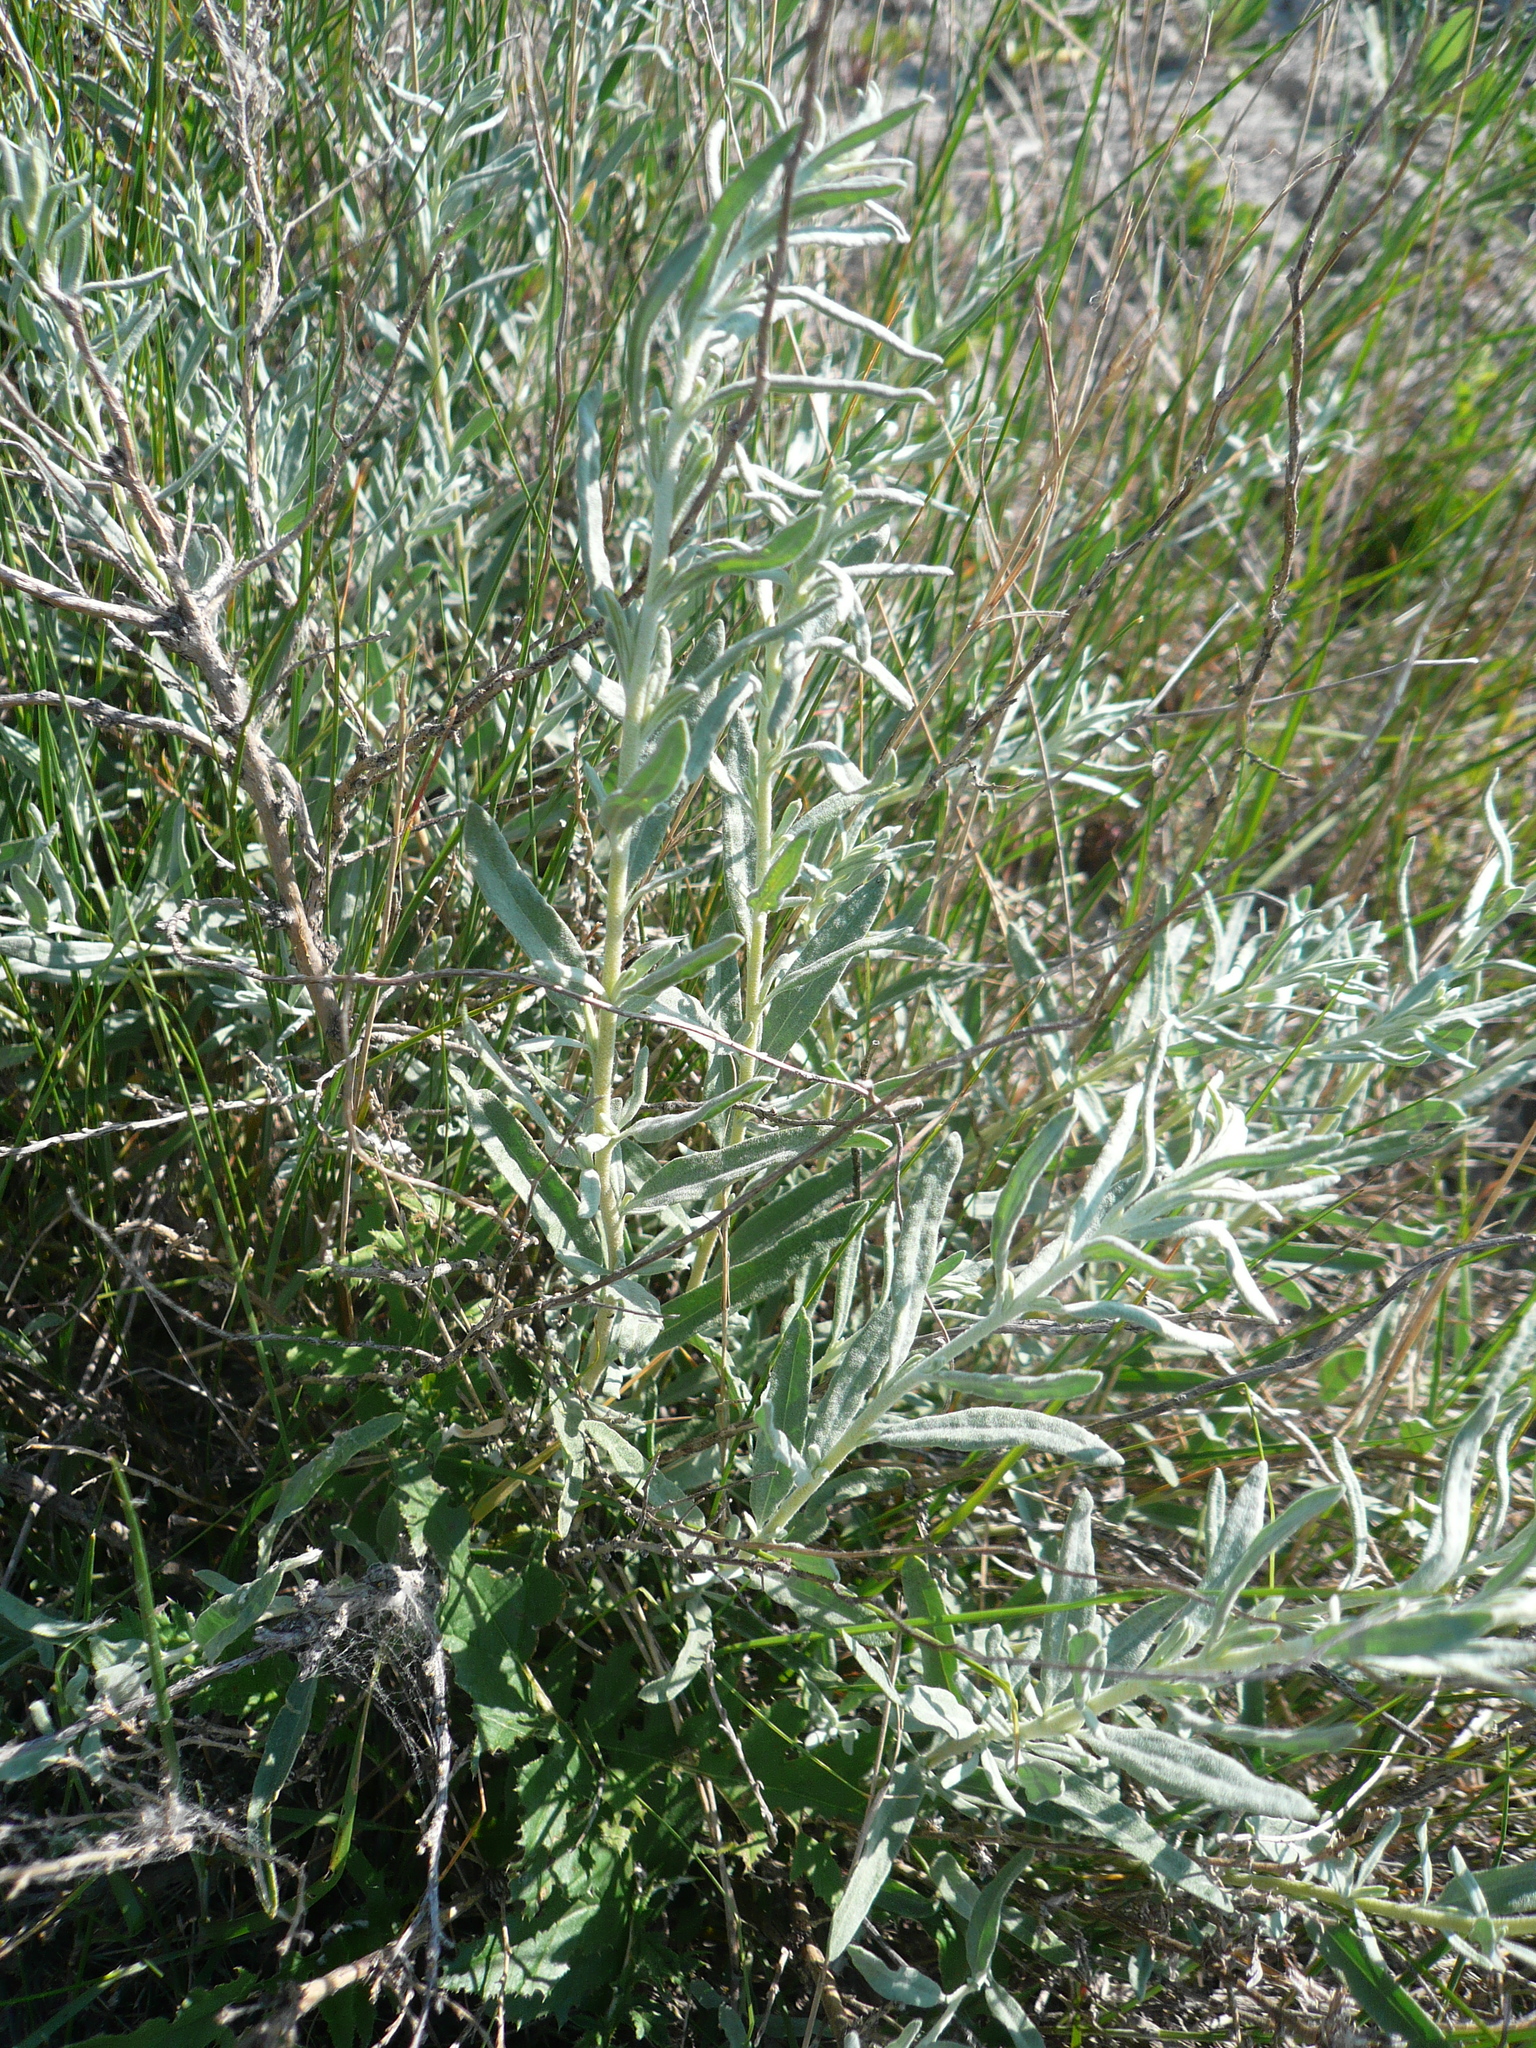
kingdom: Plantae
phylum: Tracheophyta
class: Magnoliopsida
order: Caryophyllales
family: Amaranthaceae
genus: Krascheninnikovia
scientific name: Krascheninnikovia ceratoides
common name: Pamirian winterfat
